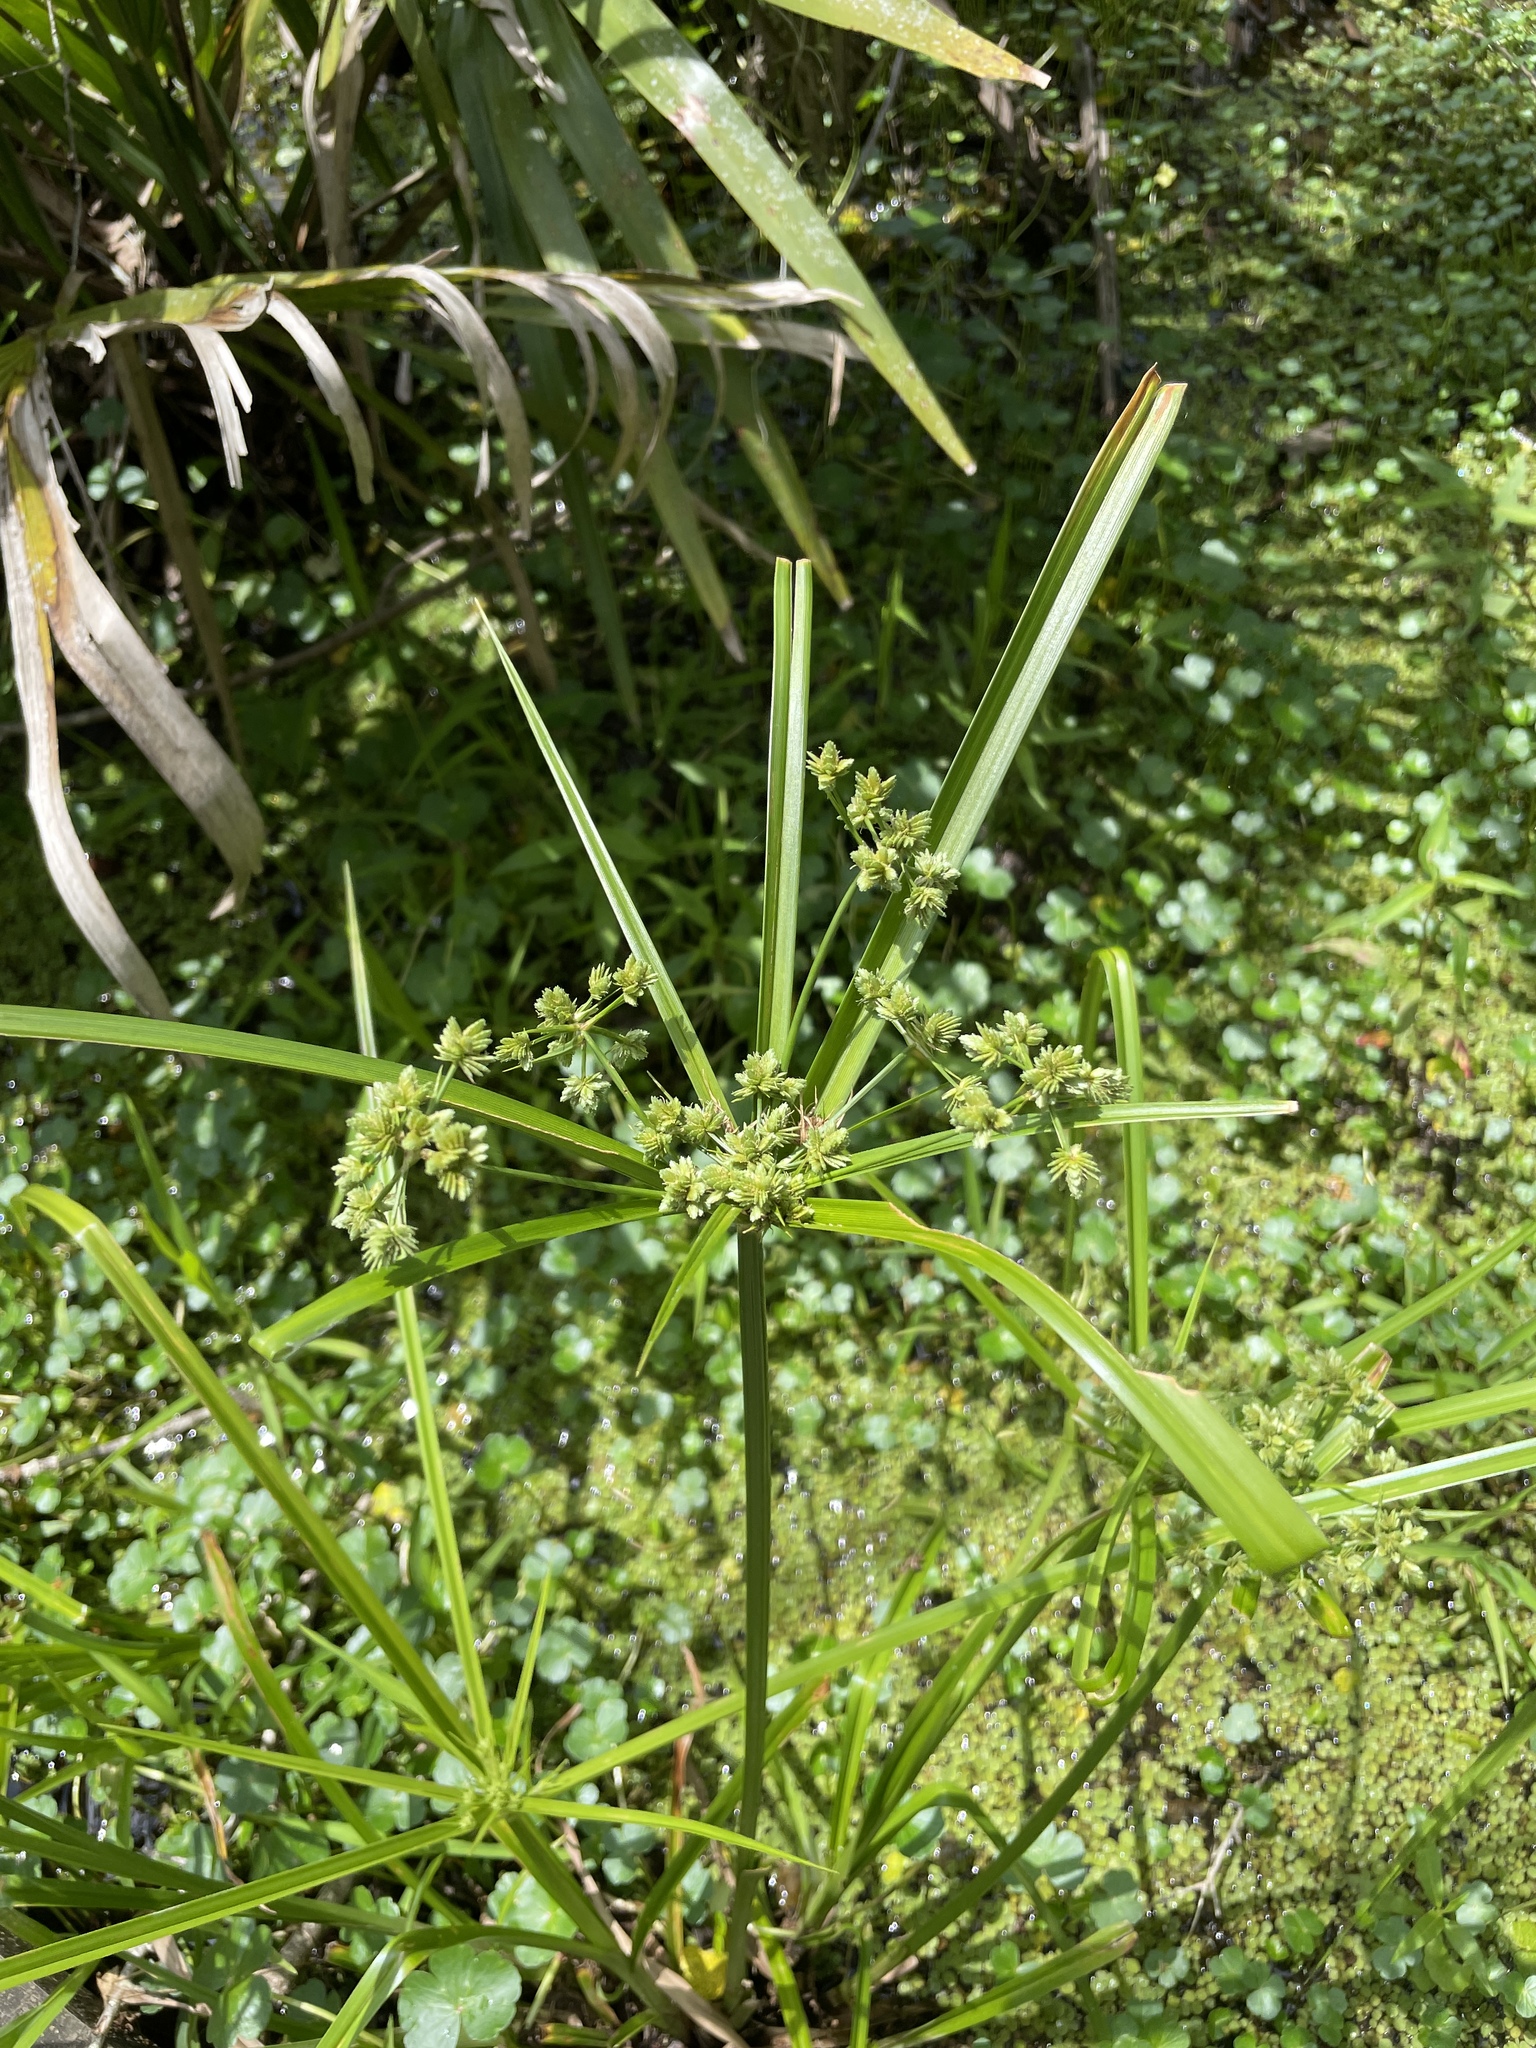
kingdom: Plantae
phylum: Tracheophyta
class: Liliopsida
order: Poales
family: Cyperaceae
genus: Cyperus
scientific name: Cyperus virens
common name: Green flatsedge
